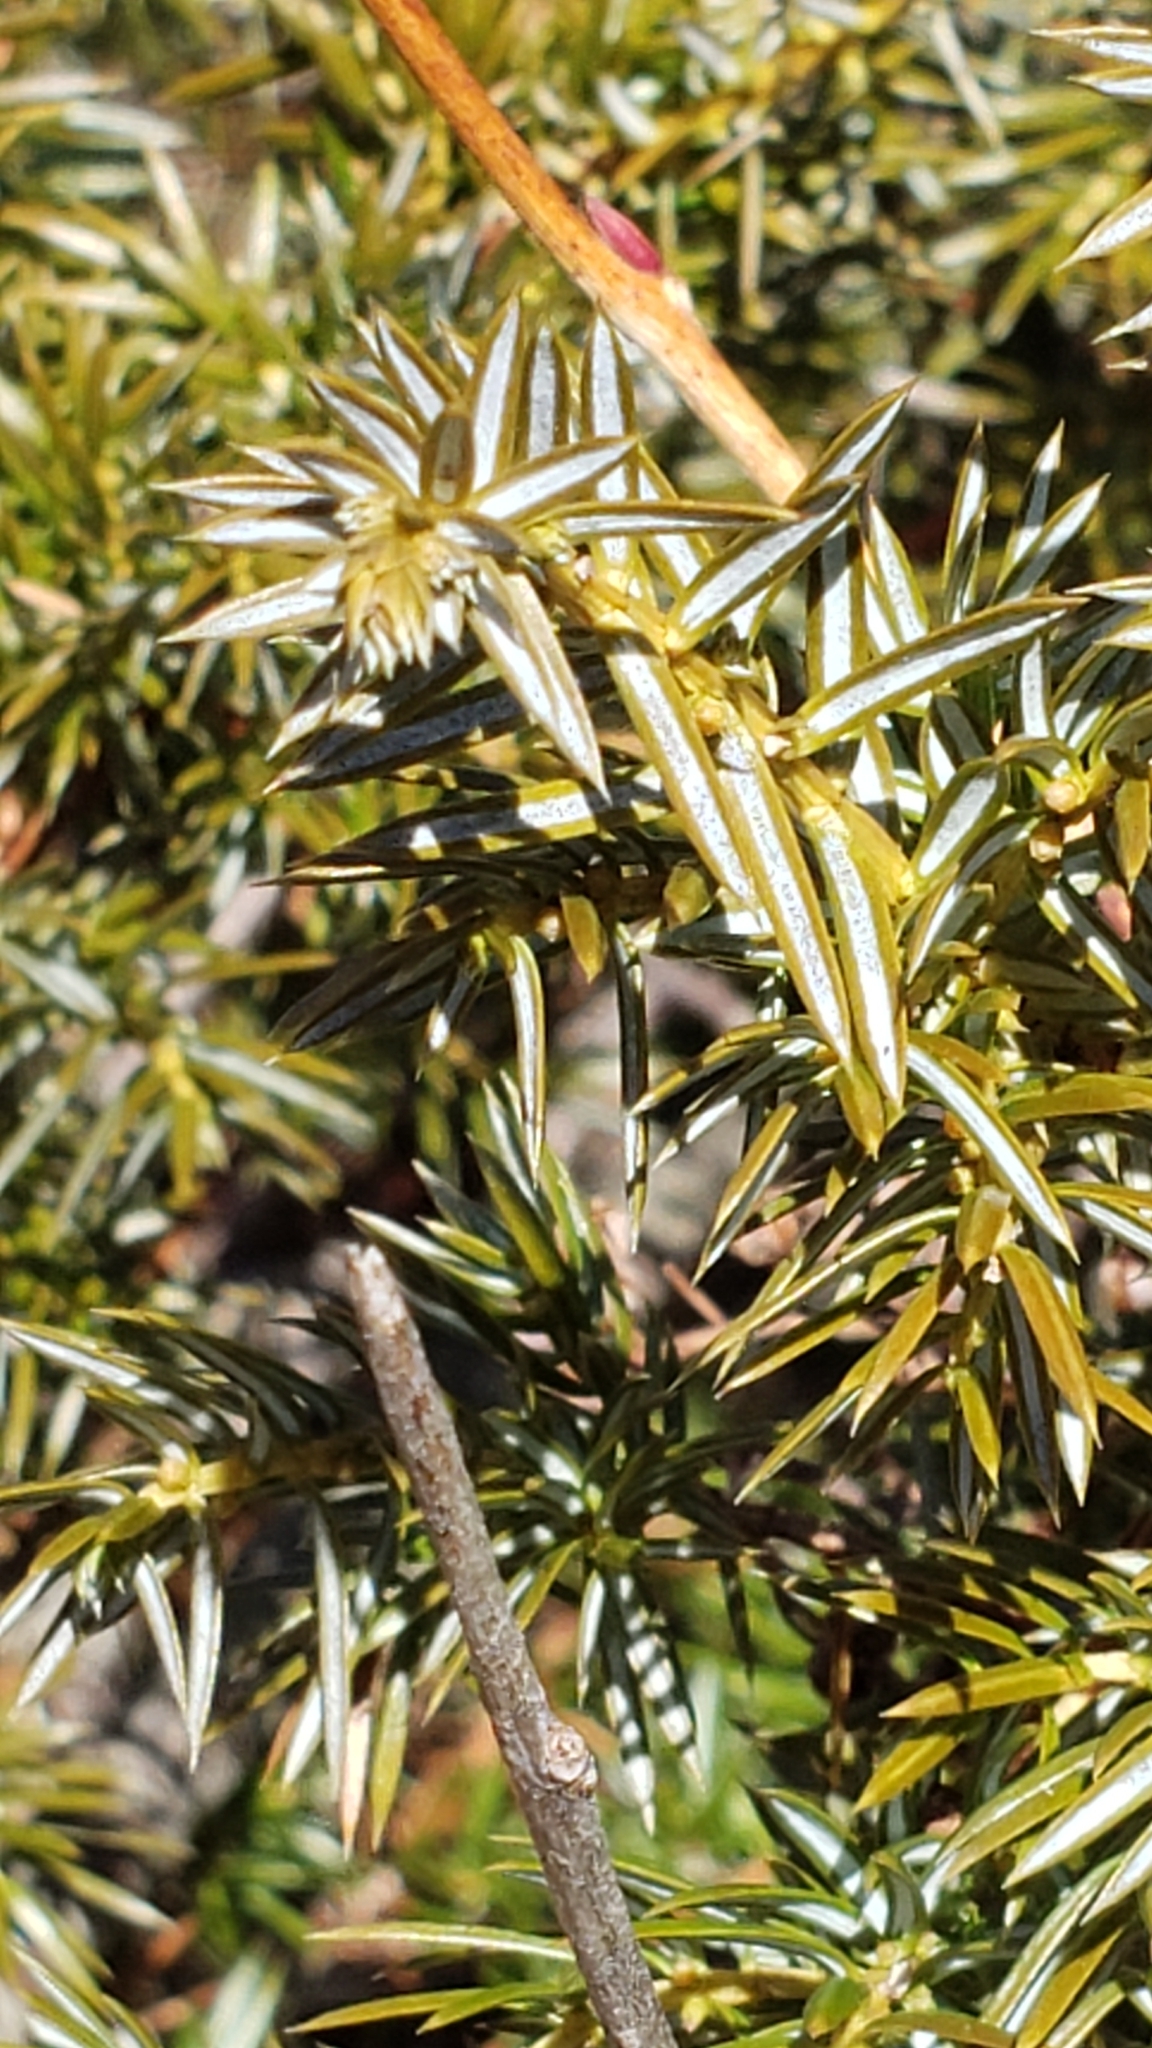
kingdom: Plantae
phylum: Tracheophyta
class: Pinopsida
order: Pinales
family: Cupressaceae
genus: Juniperus
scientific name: Juniperus communis
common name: Common juniper
